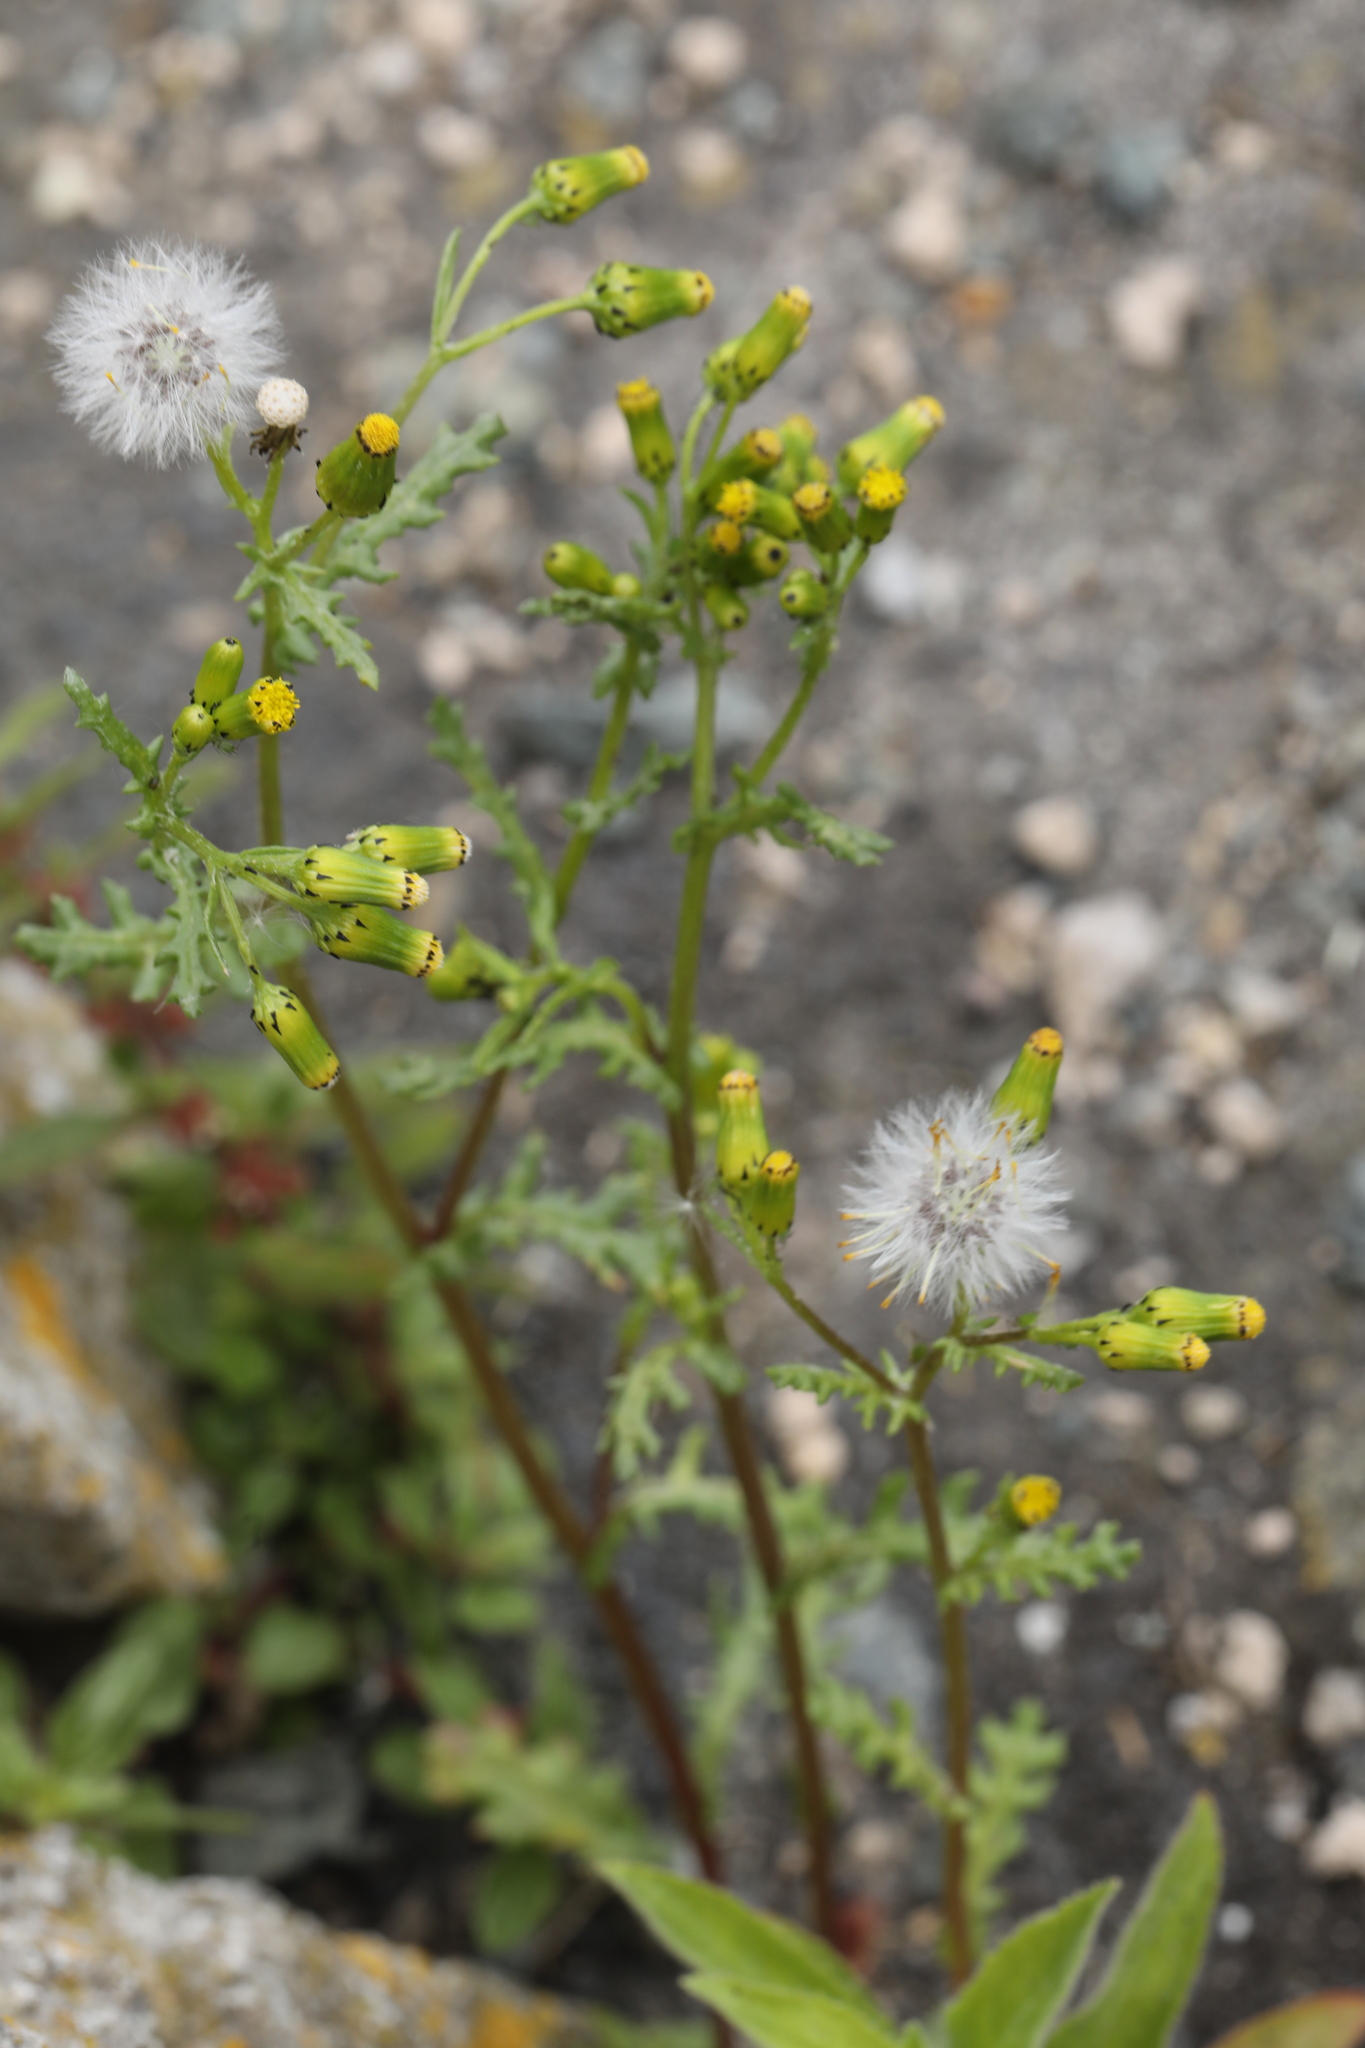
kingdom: Plantae
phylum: Tracheophyta
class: Magnoliopsida
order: Asterales
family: Asteraceae
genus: Senecio
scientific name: Senecio vulgaris
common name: Old-man-in-the-spring
